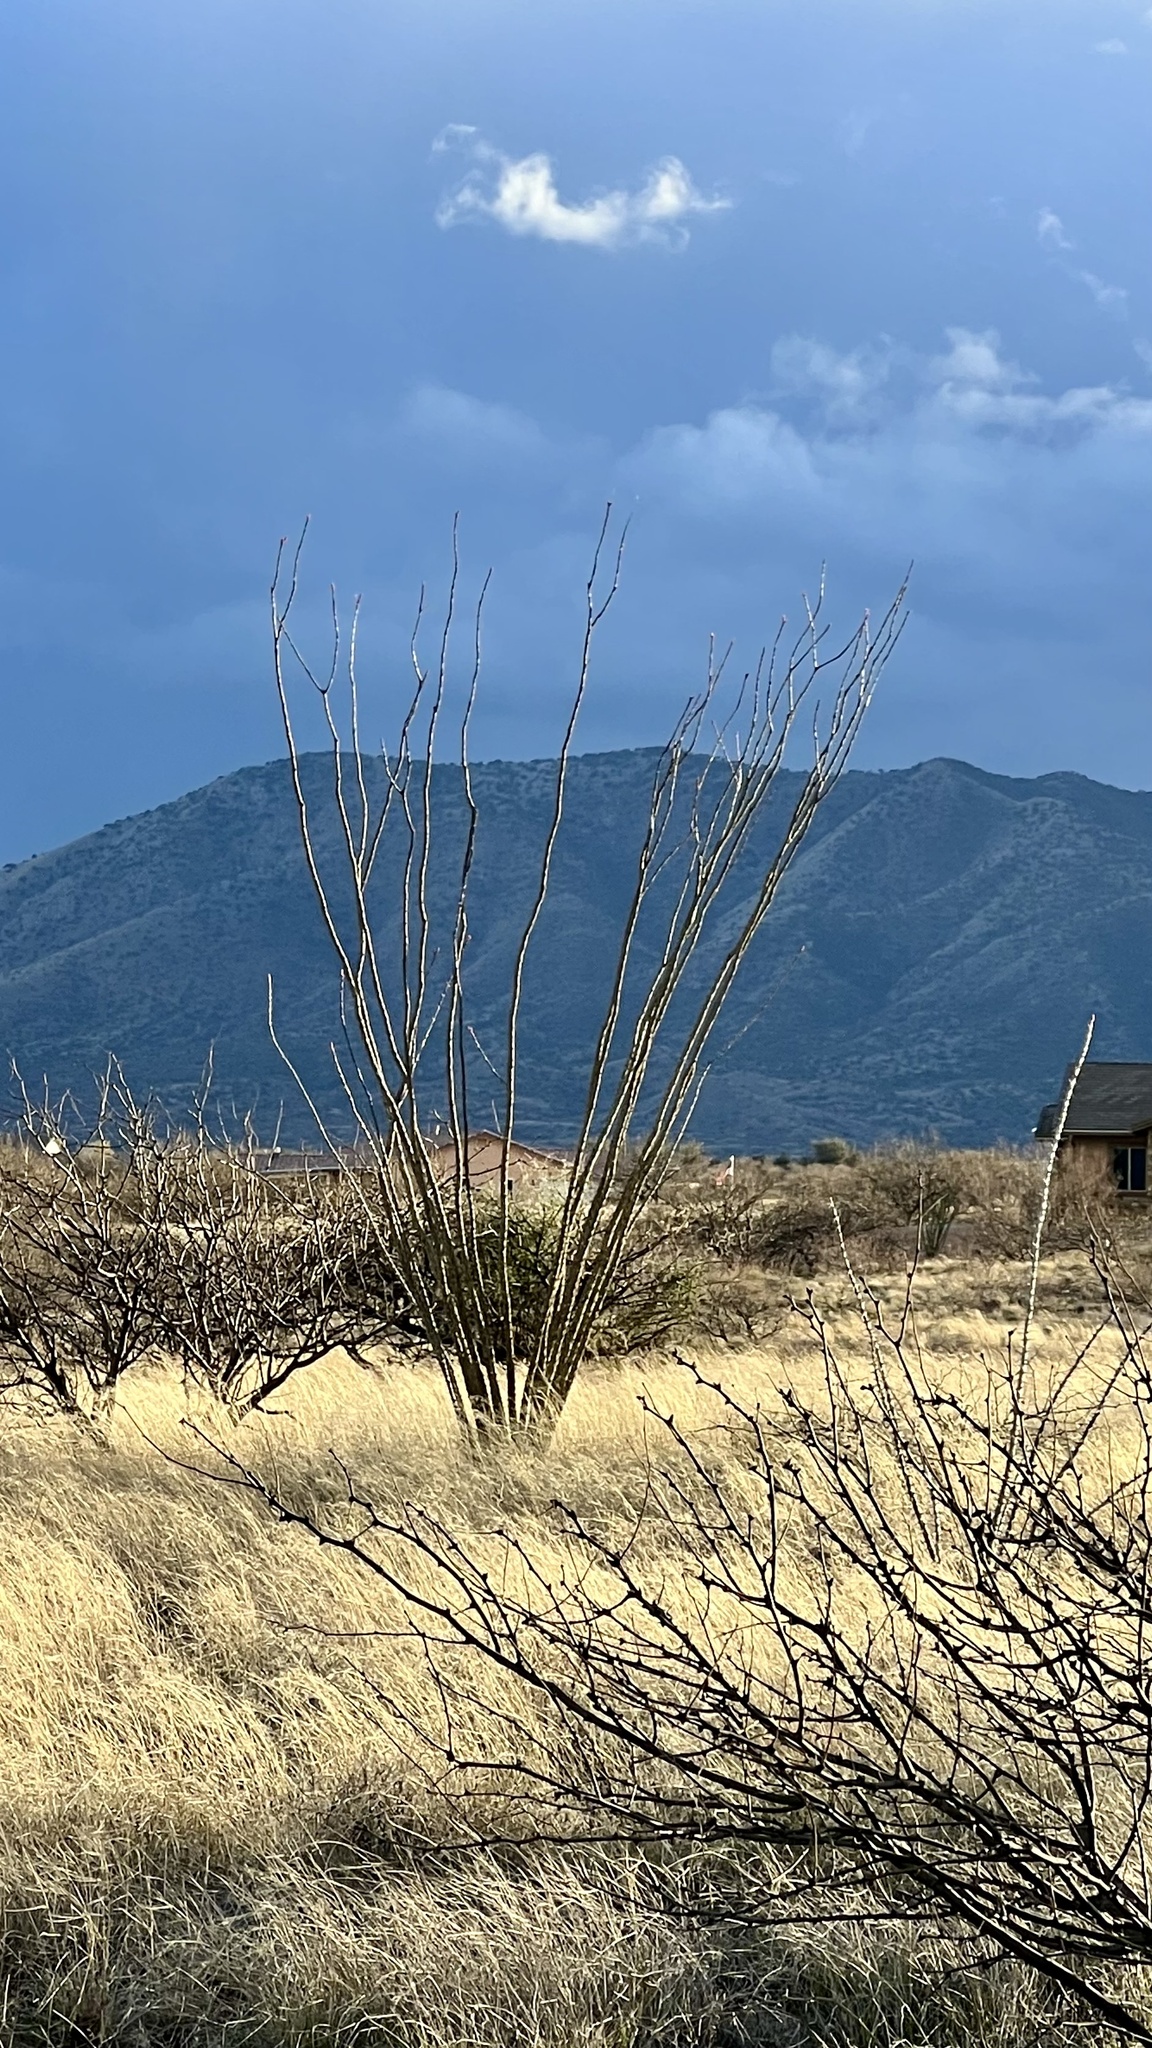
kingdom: Plantae
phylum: Tracheophyta
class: Magnoliopsida
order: Ericales
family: Fouquieriaceae
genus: Fouquieria
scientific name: Fouquieria splendens
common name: Vine-cactus
